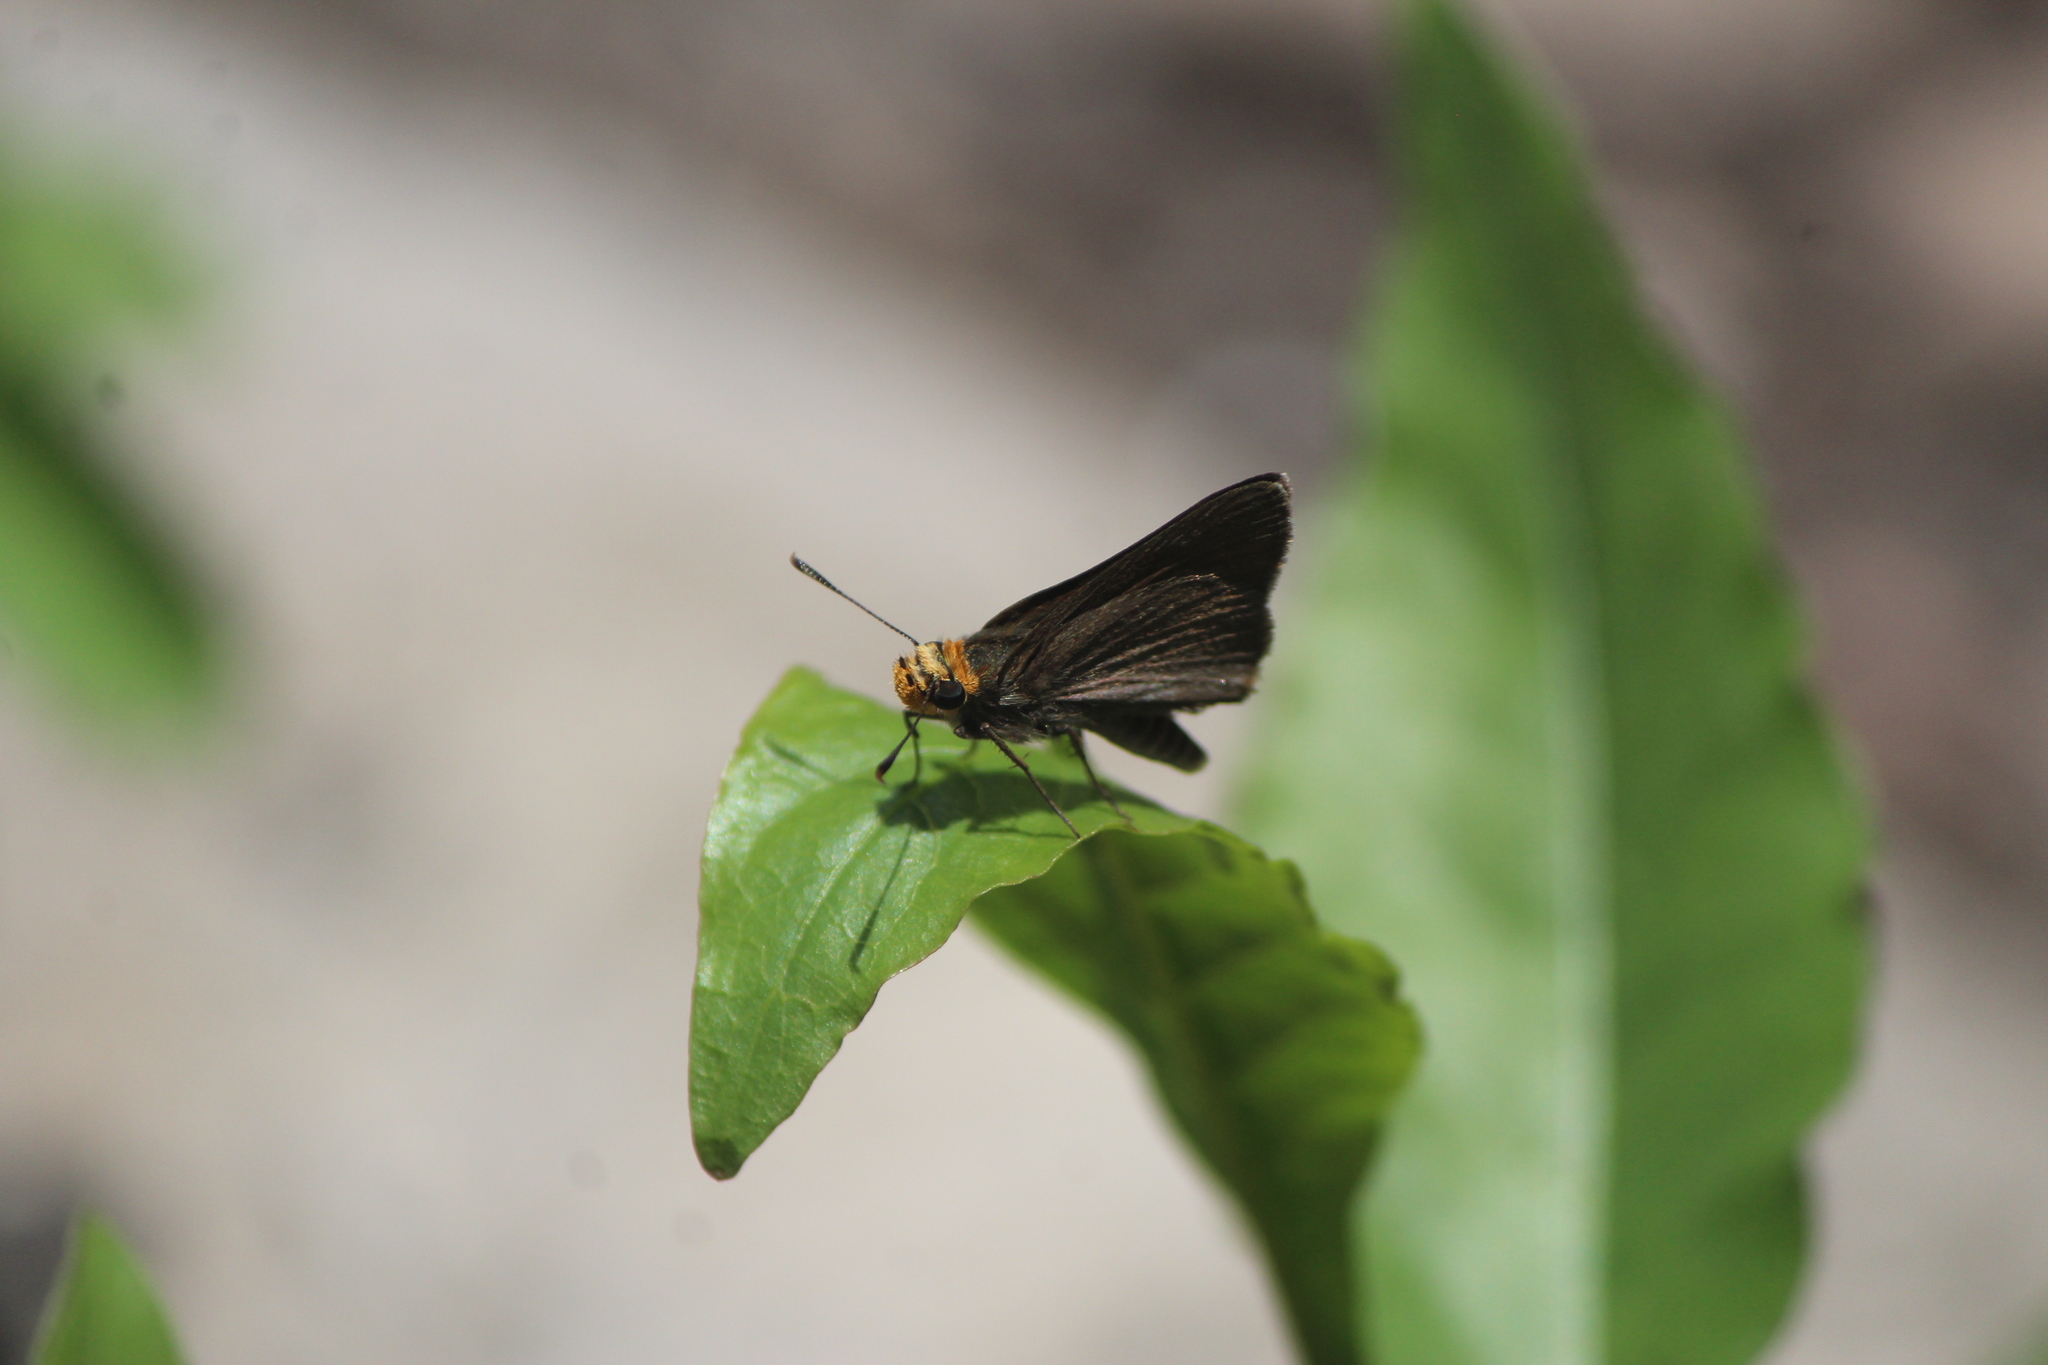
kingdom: Animalia
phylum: Arthropoda
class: Insecta
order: Lepidoptera
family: Hesperiidae
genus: Mastor
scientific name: Mastor phylace
